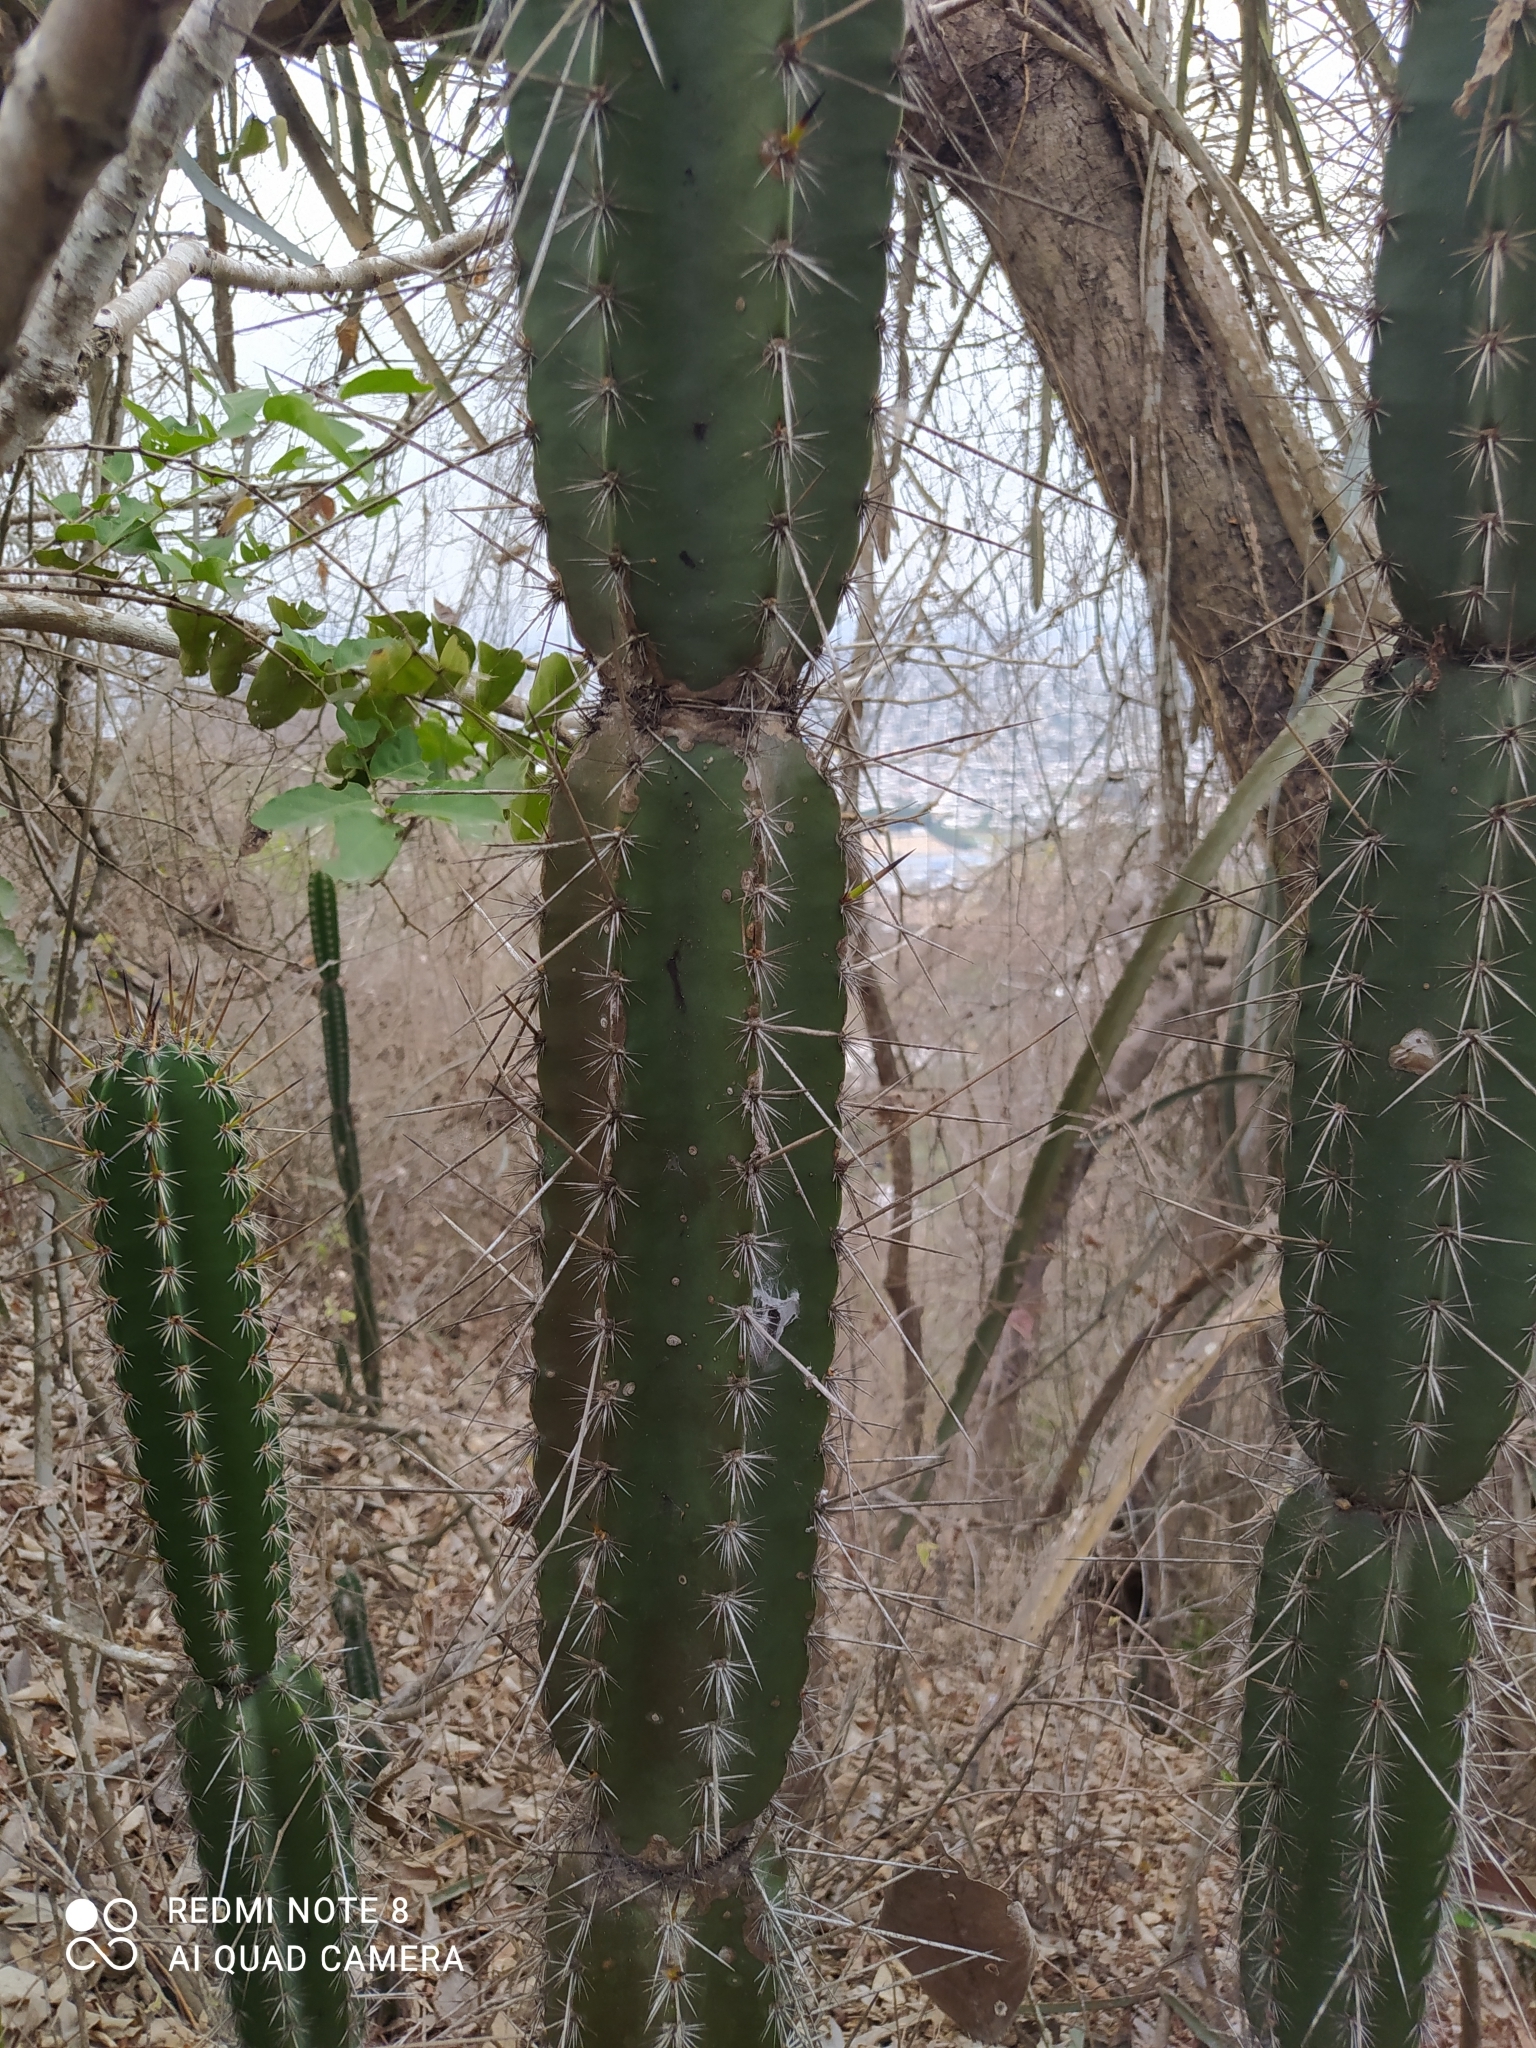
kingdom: Plantae
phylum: Tracheophyta
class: Magnoliopsida
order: Caryophyllales
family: Cactaceae
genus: Armatocereus
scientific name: Armatocereus cartwrightianus
